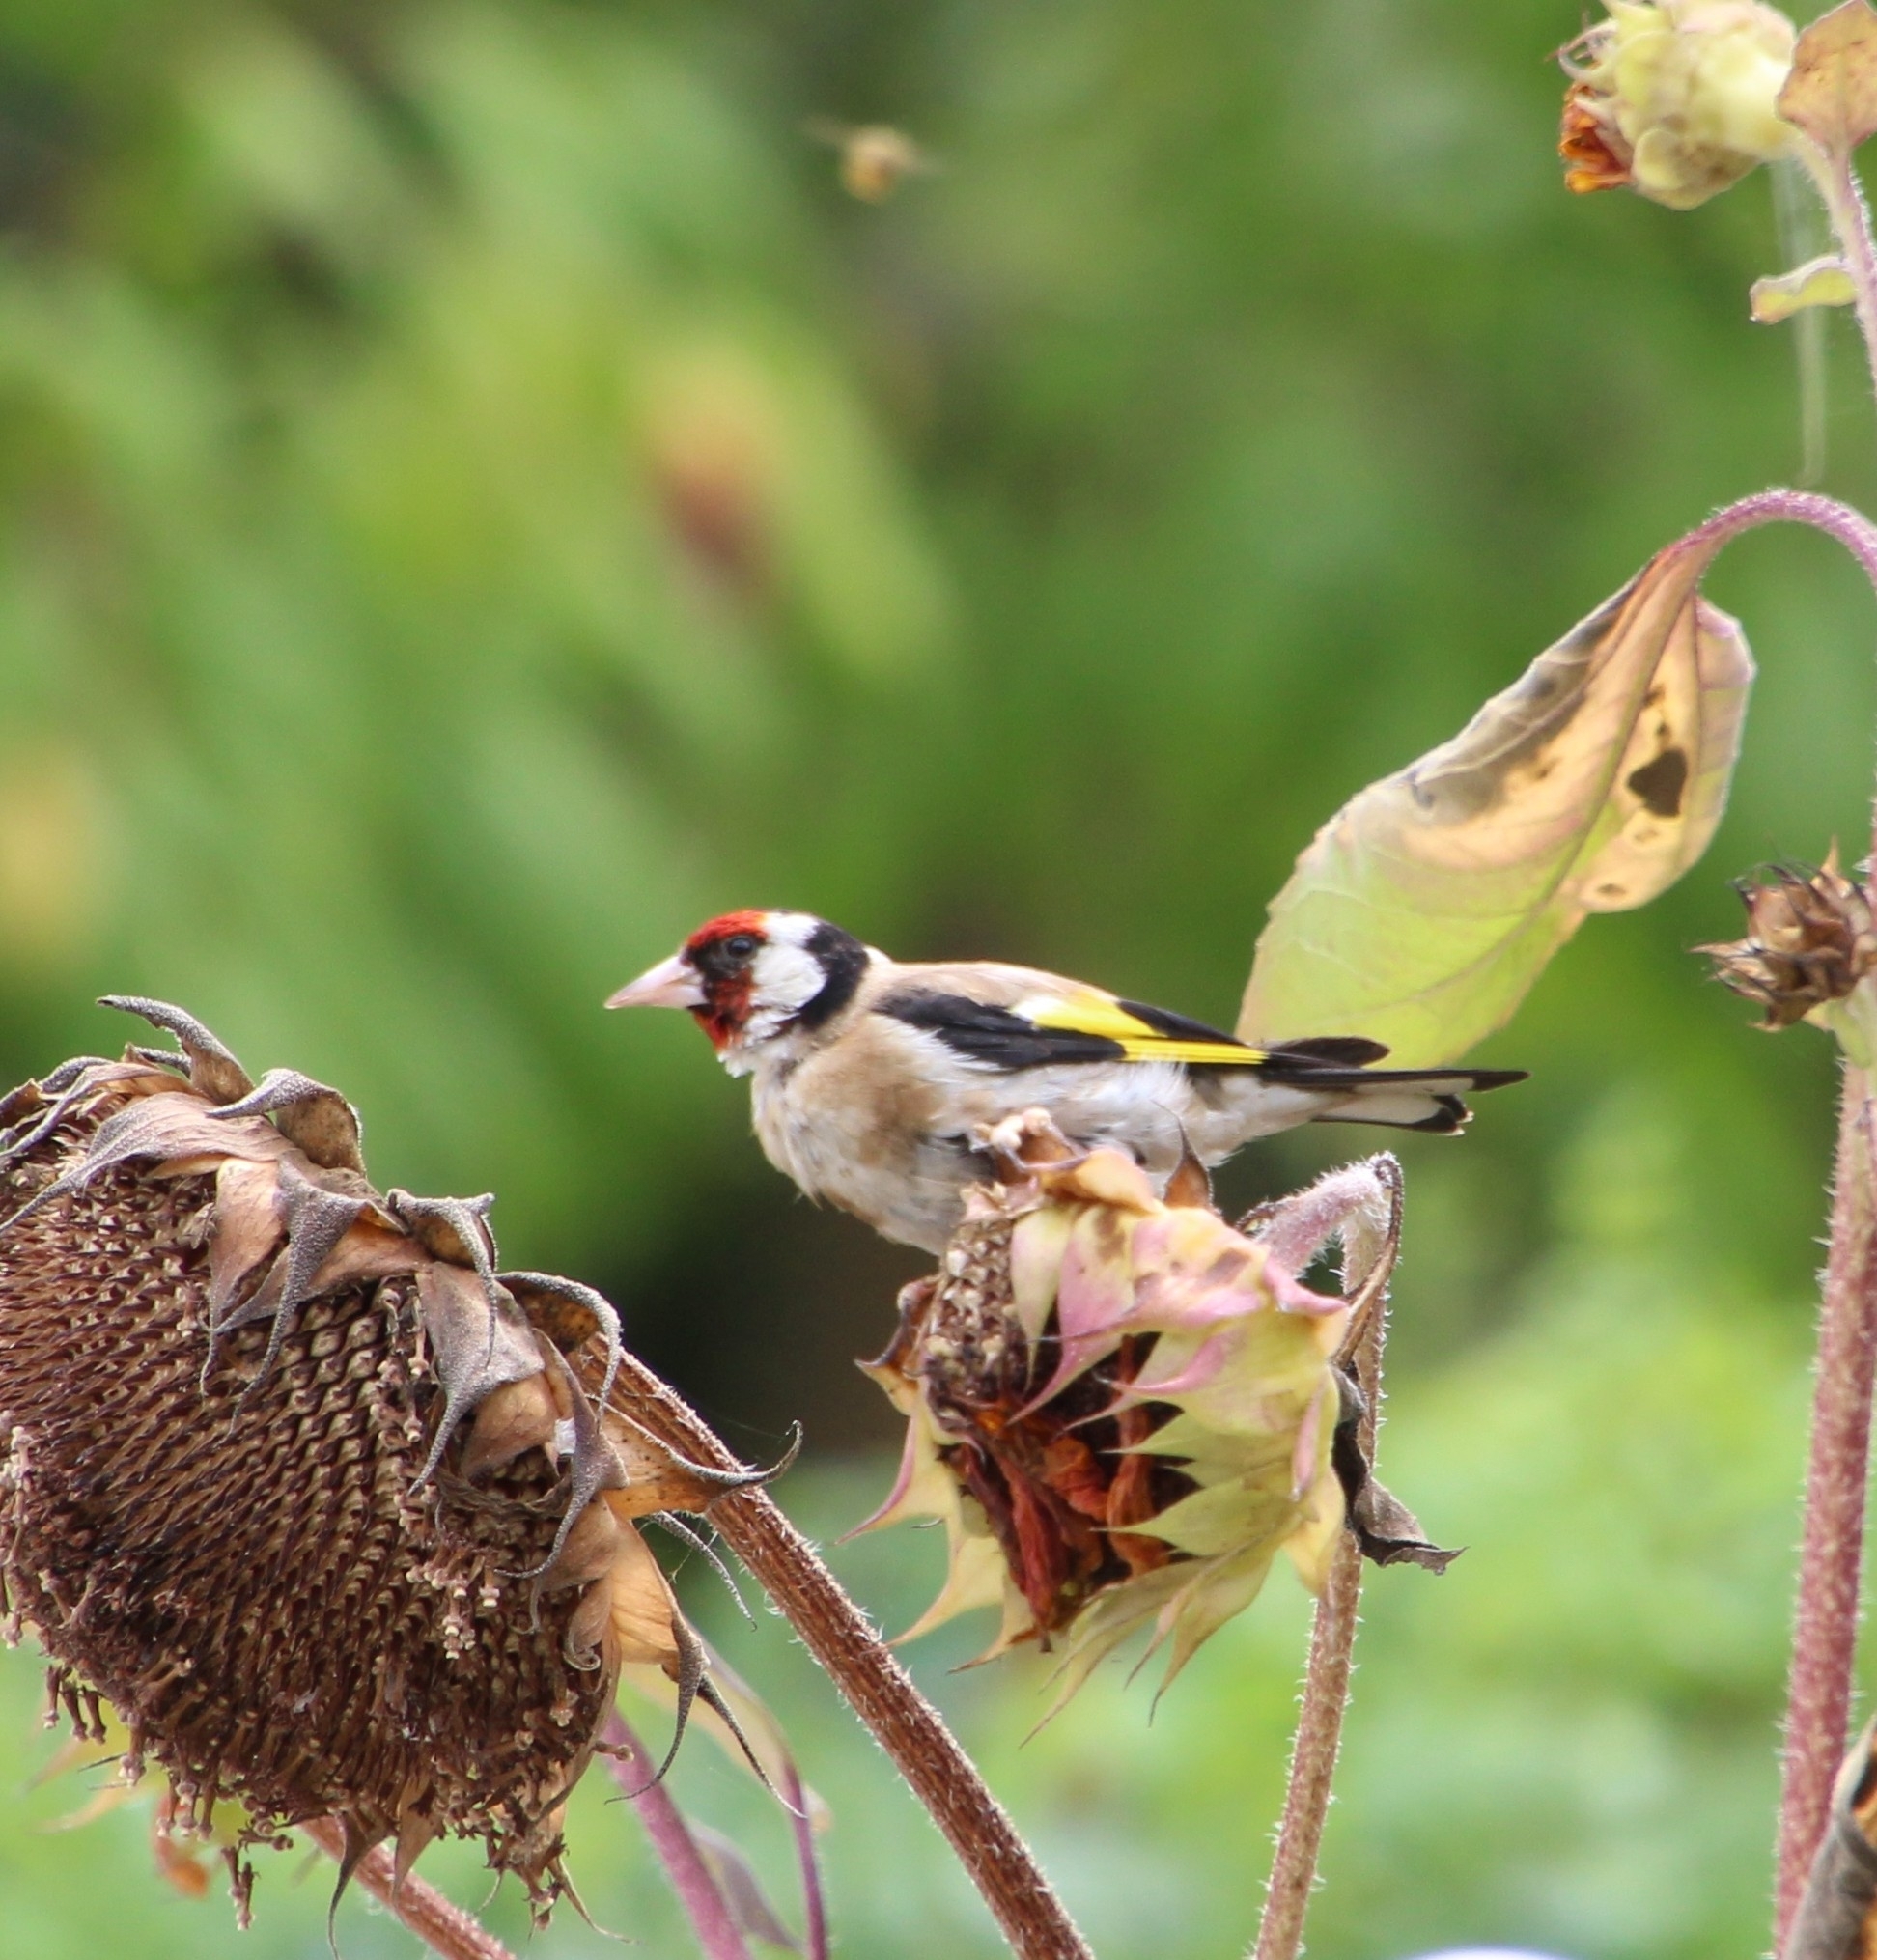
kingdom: Animalia
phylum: Chordata
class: Aves
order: Passeriformes
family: Fringillidae
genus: Carduelis
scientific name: Carduelis carduelis
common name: European goldfinch
